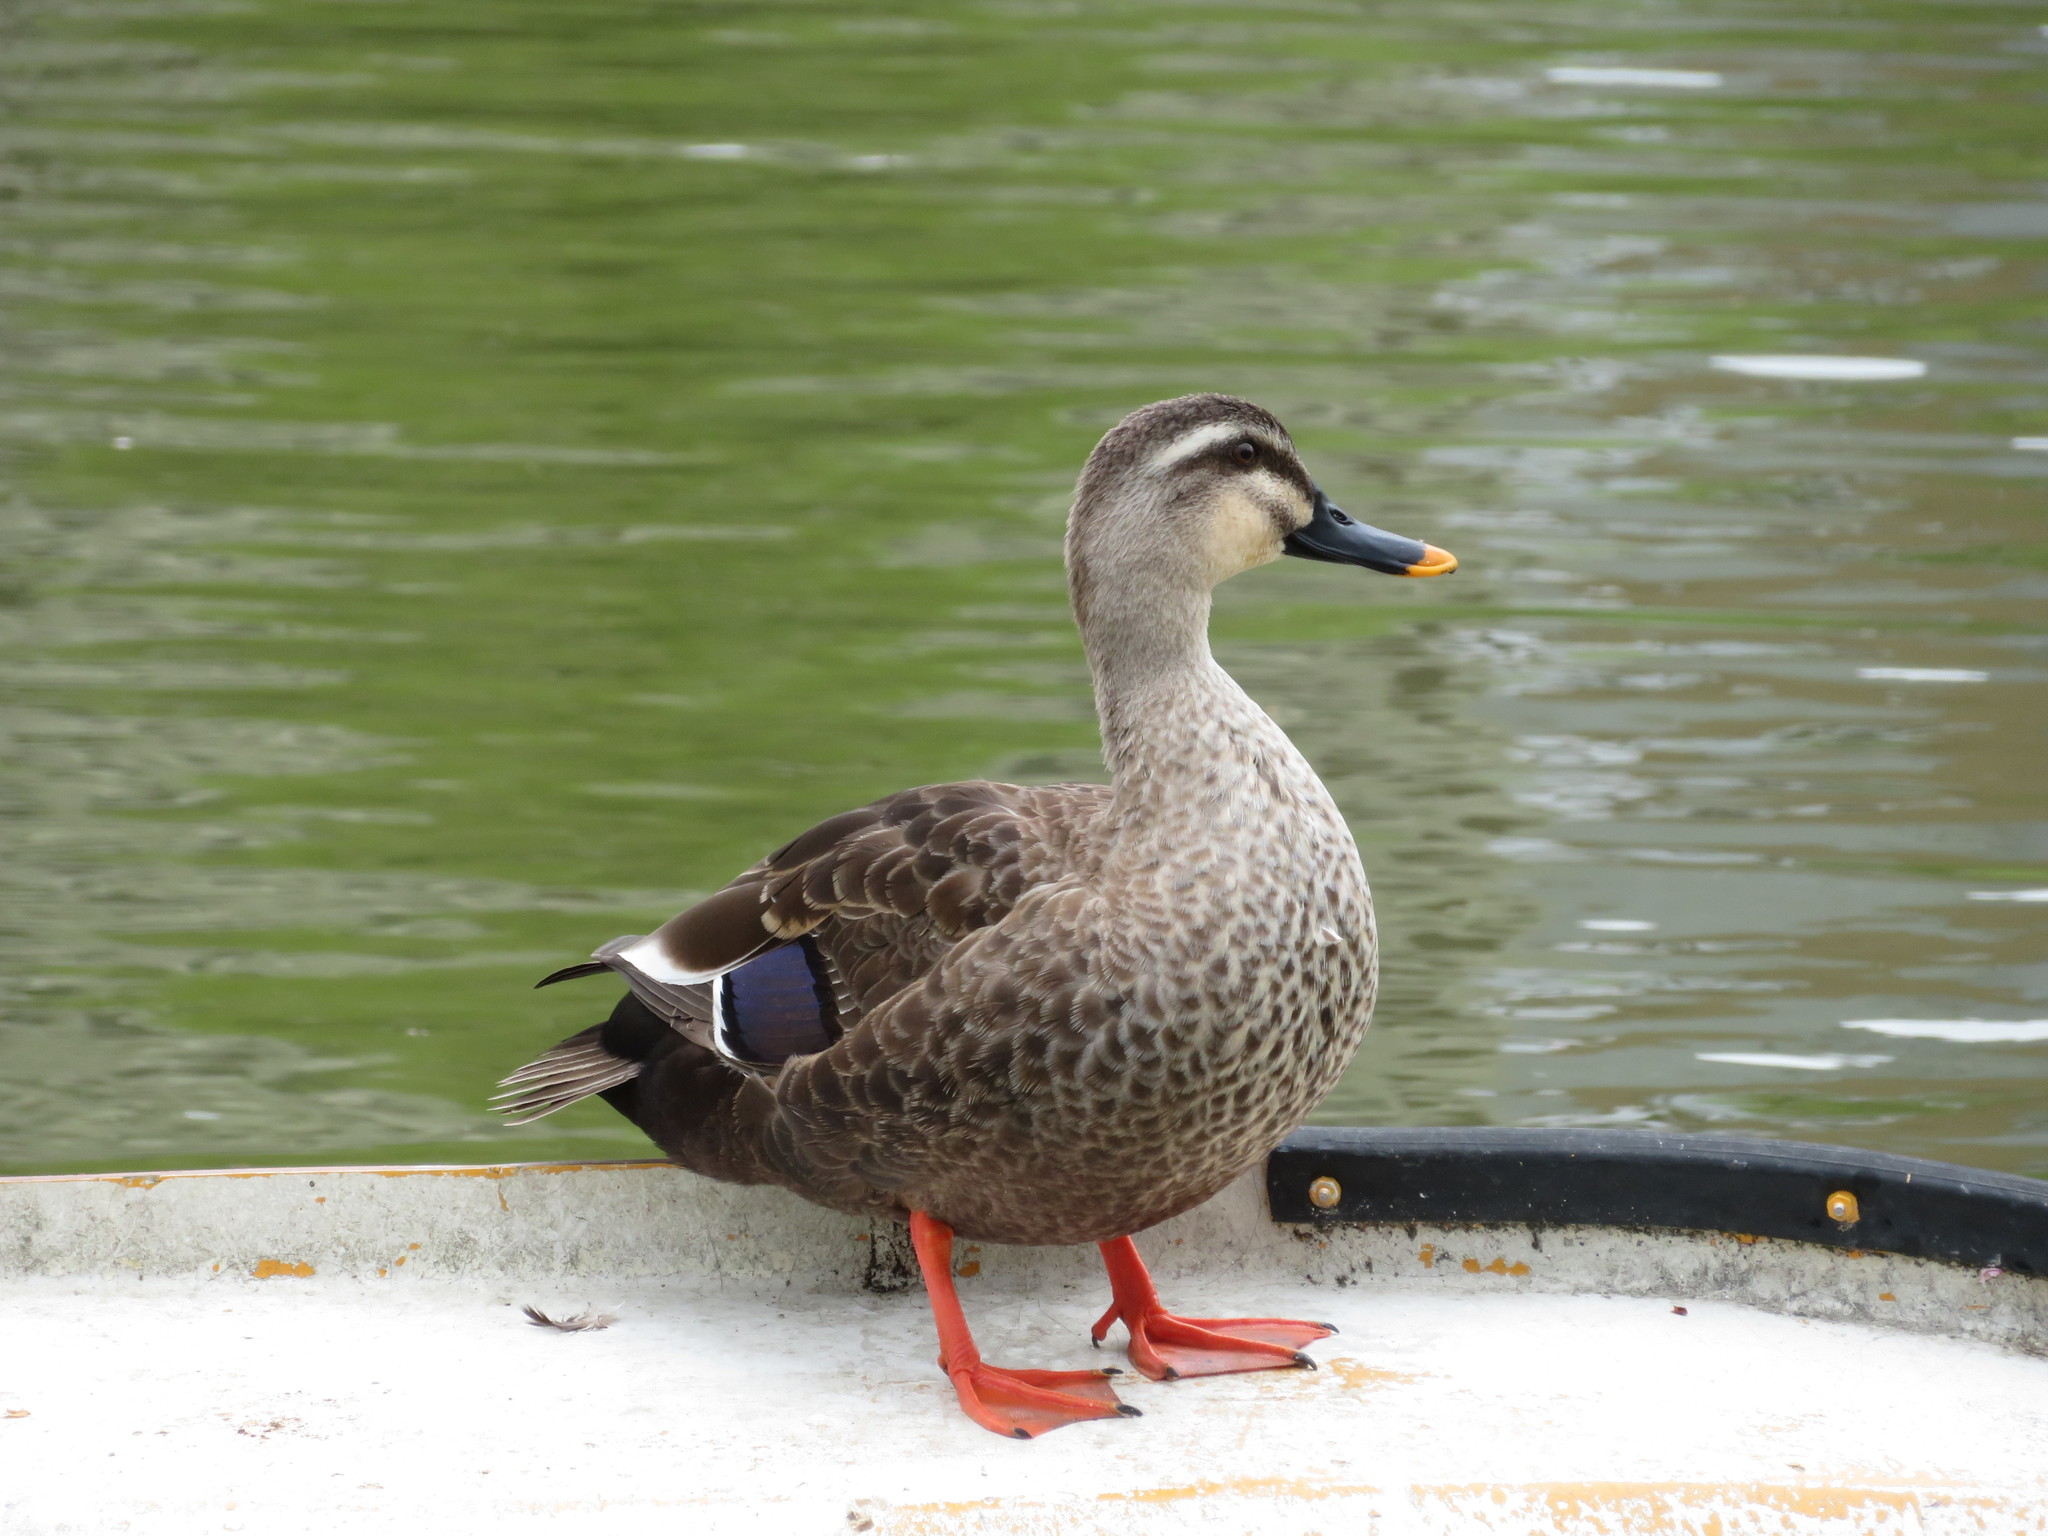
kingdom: Animalia
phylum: Chordata
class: Aves
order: Anseriformes
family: Anatidae
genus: Anas
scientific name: Anas zonorhyncha
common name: Eastern spot-billed duck
